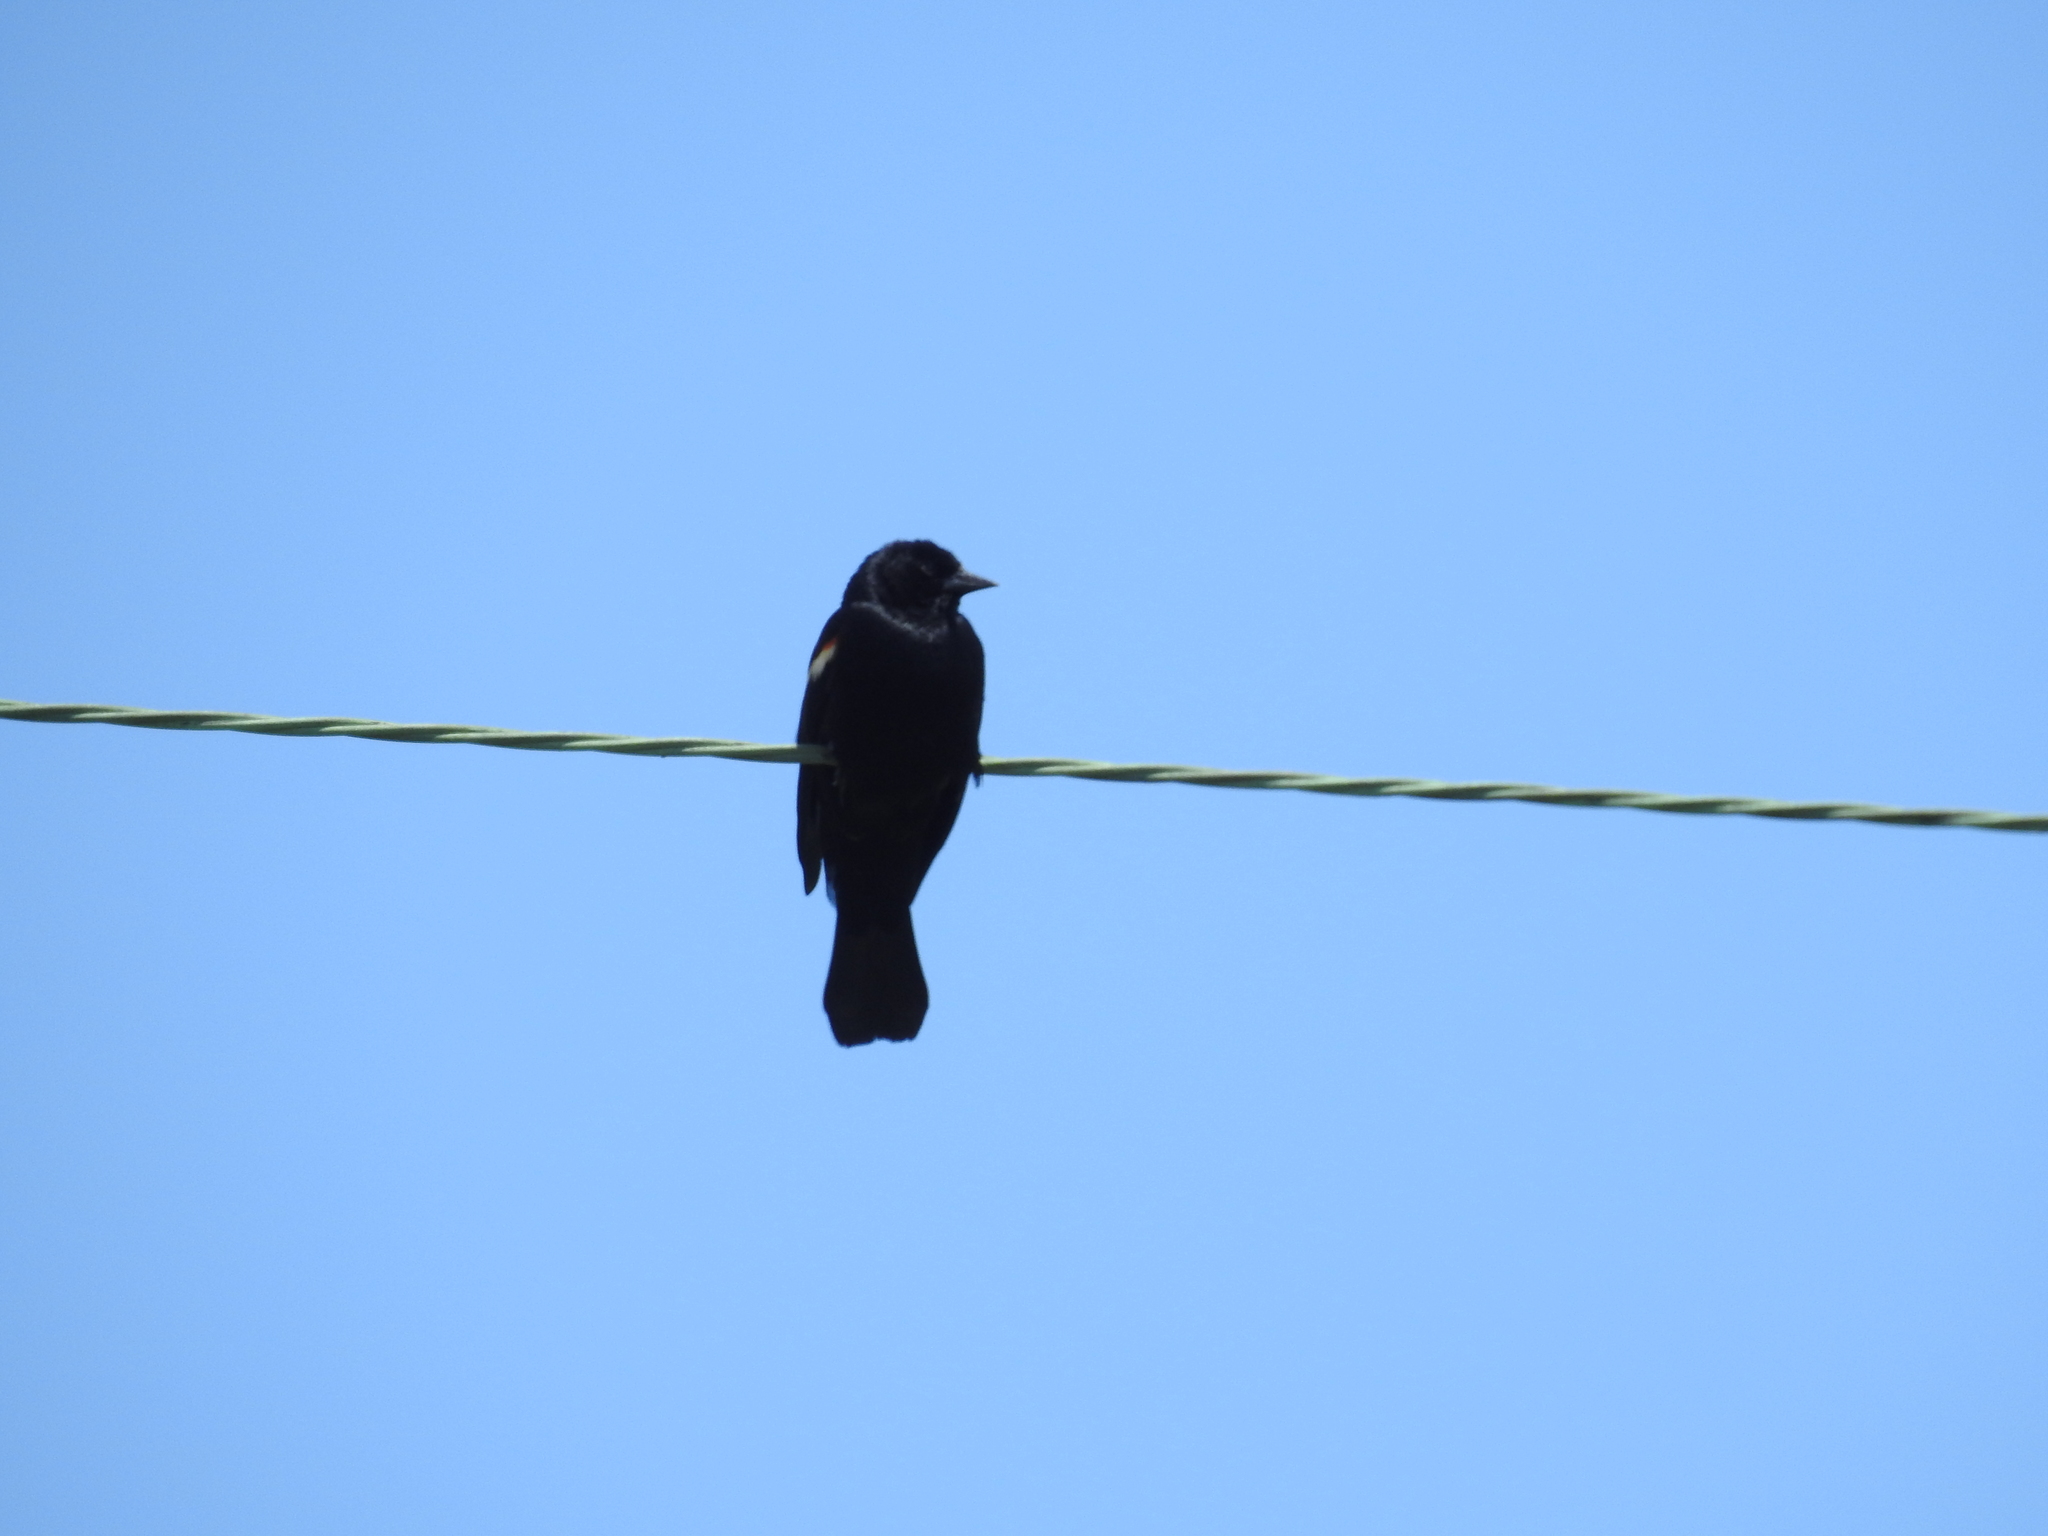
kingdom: Animalia
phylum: Chordata
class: Aves
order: Passeriformes
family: Icteridae
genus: Agelaius
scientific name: Agelaius phoeniceus
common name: Red-winged blackbird
